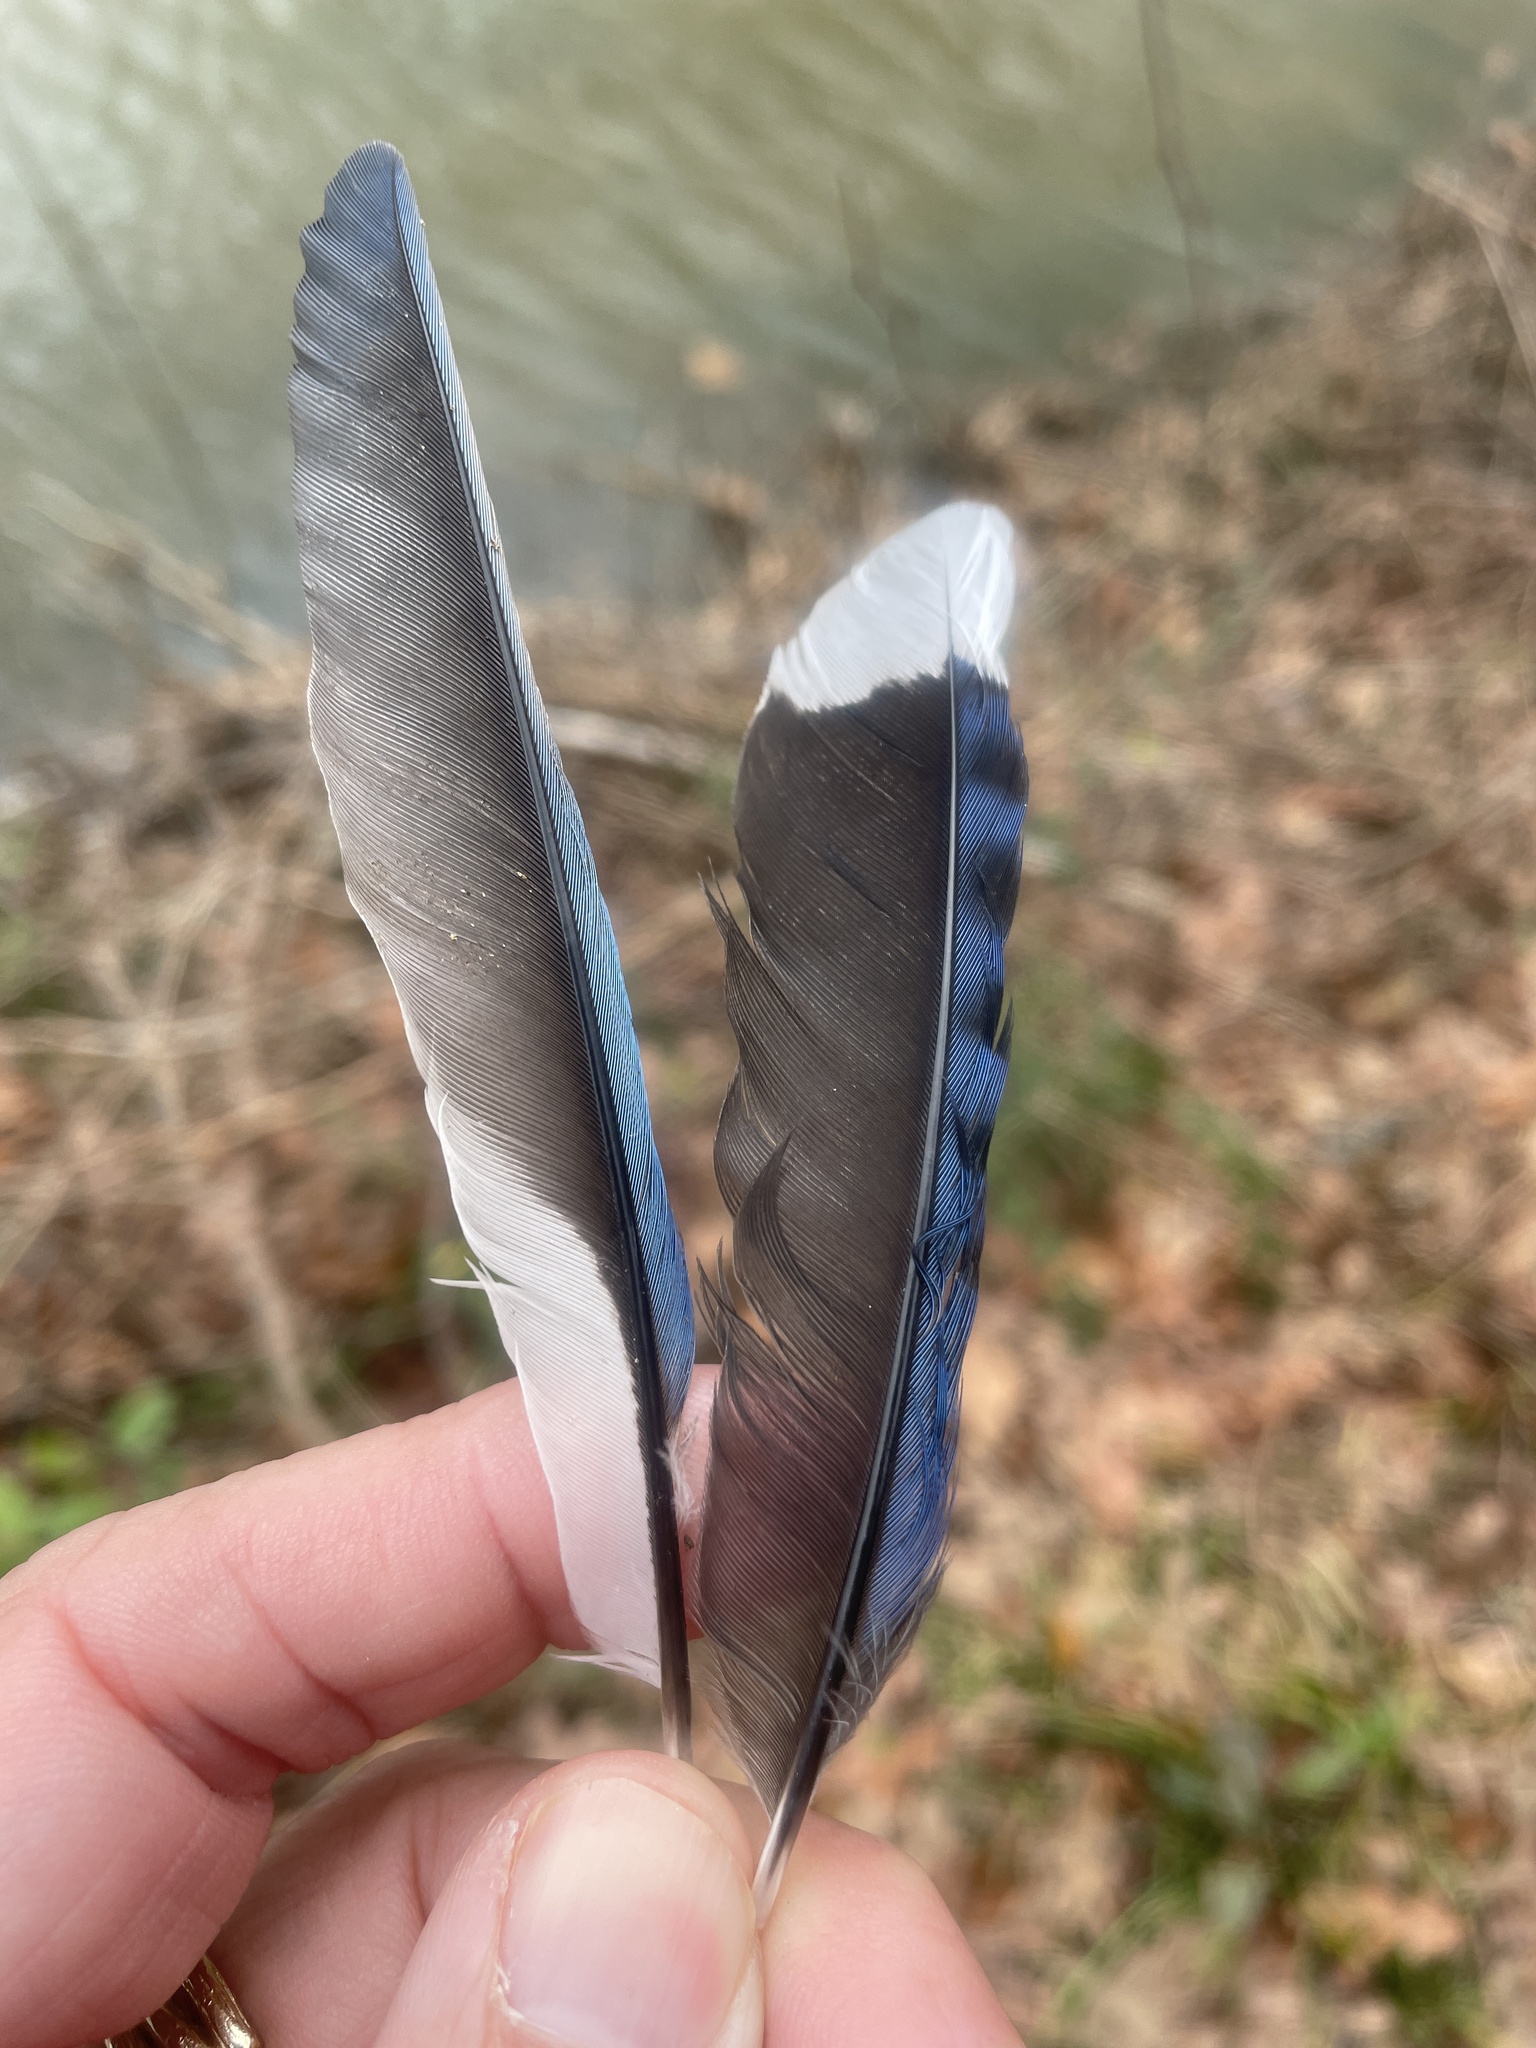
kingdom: Animalia
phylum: Chordata
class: Aves
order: Passeriformes
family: Corvidae
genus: Cyanocitta
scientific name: Cyanocitta cristata
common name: Blue jay
